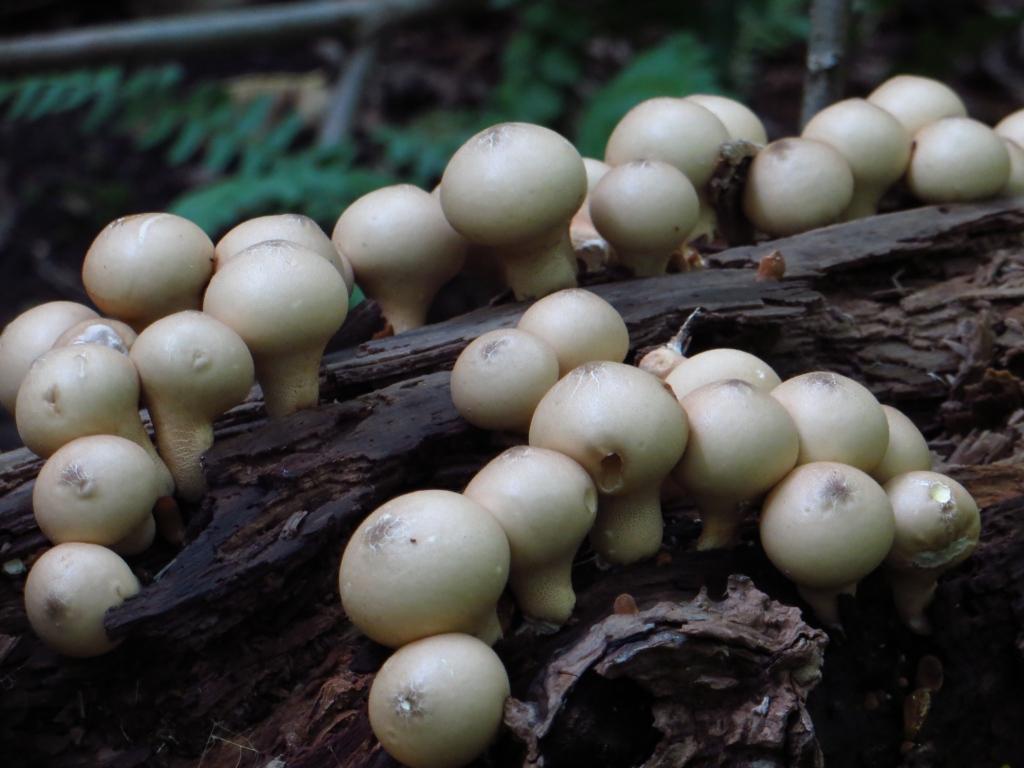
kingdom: Fungi
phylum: Basidiomycota
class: Agaricomycetes
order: Agaricales
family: Lycoperdaceae
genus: Apioperdon
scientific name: Apioperdon pyriforme
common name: Pear-shaped puffball
